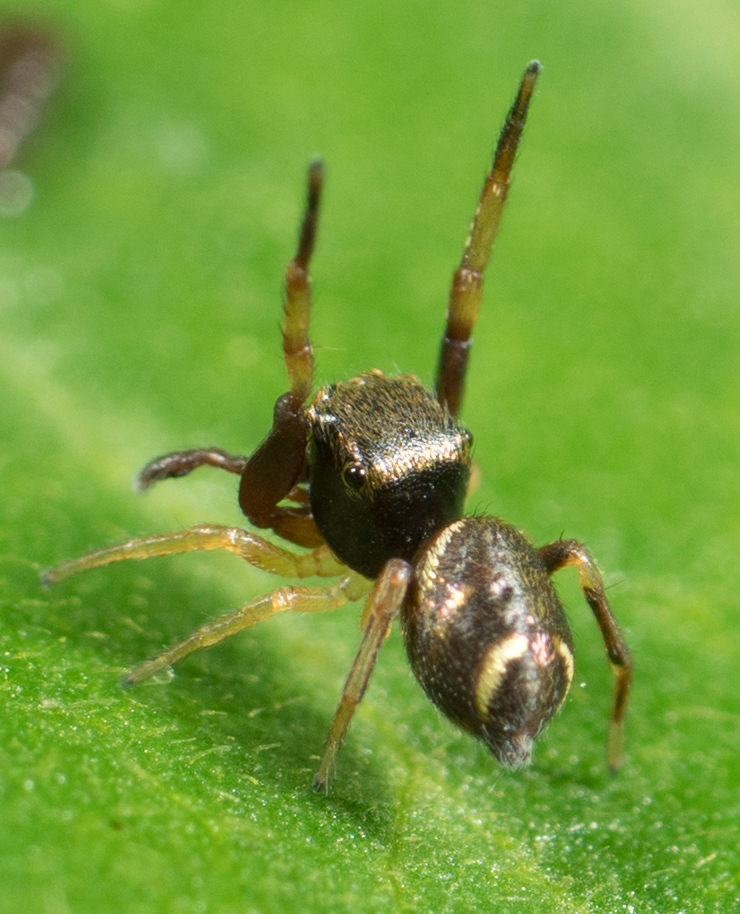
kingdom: Animalia
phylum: Arthropoda
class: Arachnida
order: Araneae
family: Salticidae
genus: Zygoballus
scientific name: Zygoballus rufipes
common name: Jumping spiders
